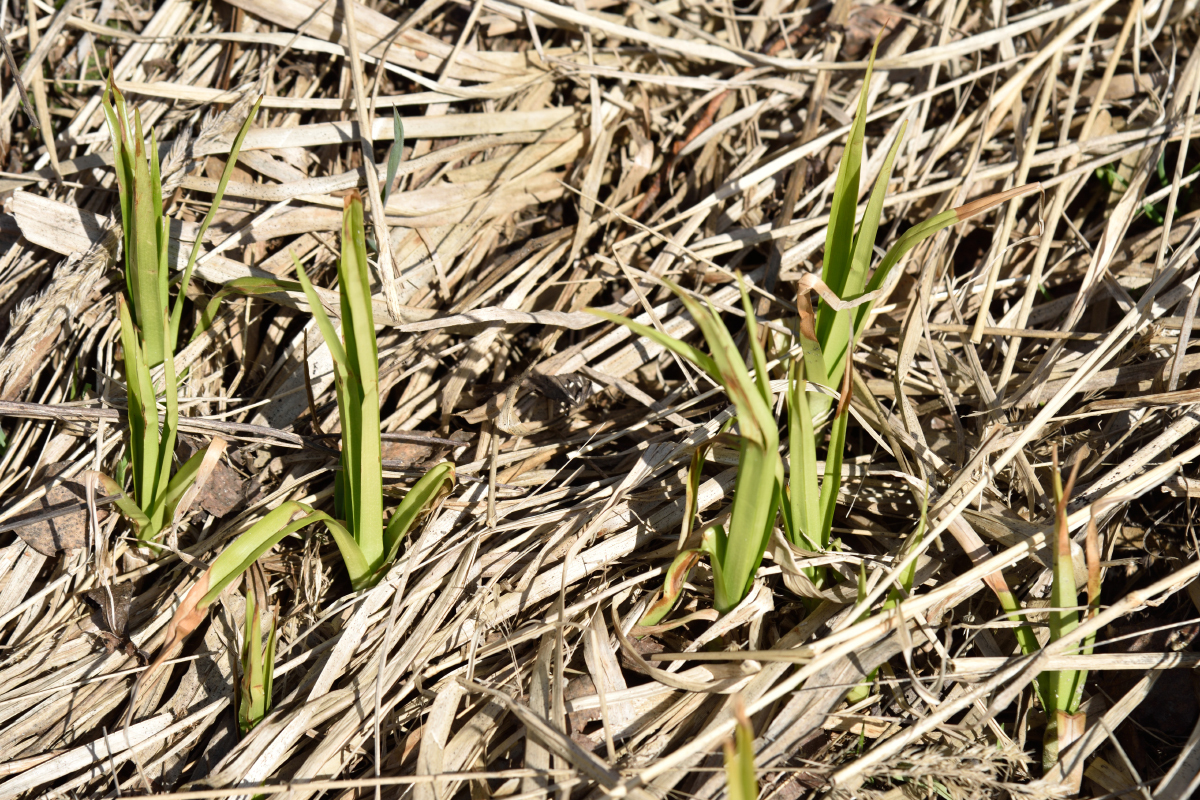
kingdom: Plantae
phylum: Tracheophyta
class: Liliopsida
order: Poales
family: Cyperaceae
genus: Scirpus
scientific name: Scirpus sylvaticus
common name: Wood club-rush
